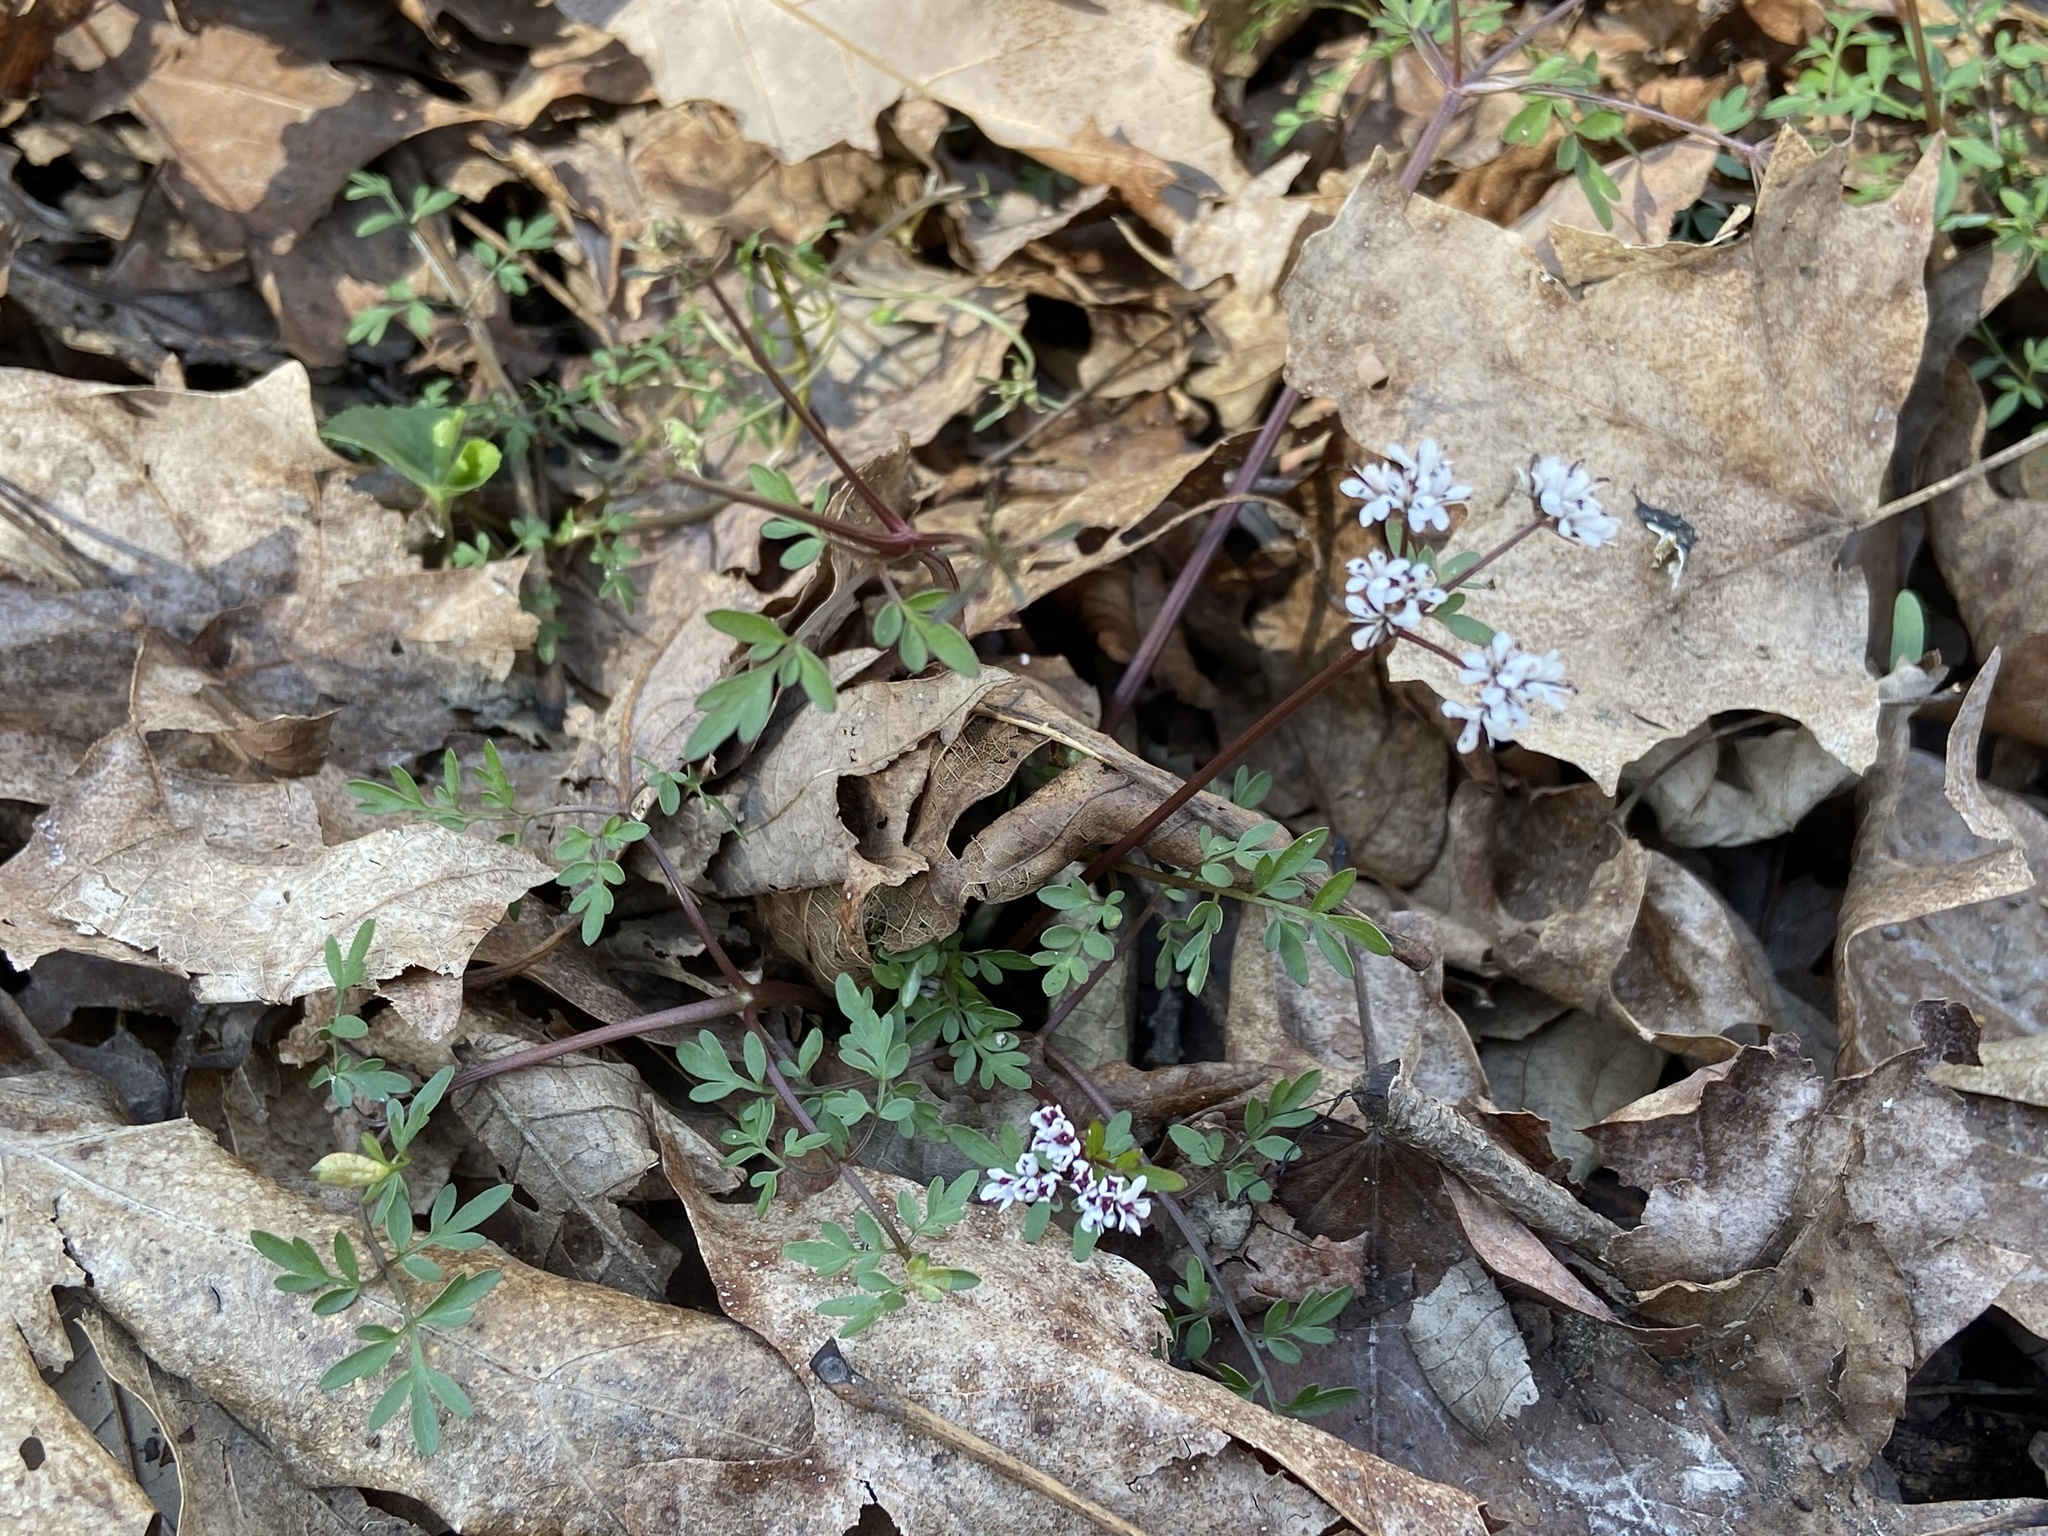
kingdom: Plantae
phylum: Tracheophyta
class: Magnoliopsida
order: Apiales
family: Apiaceae
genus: Erigenia
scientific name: Erigenia bulbosa
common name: Pepper-and-salt
